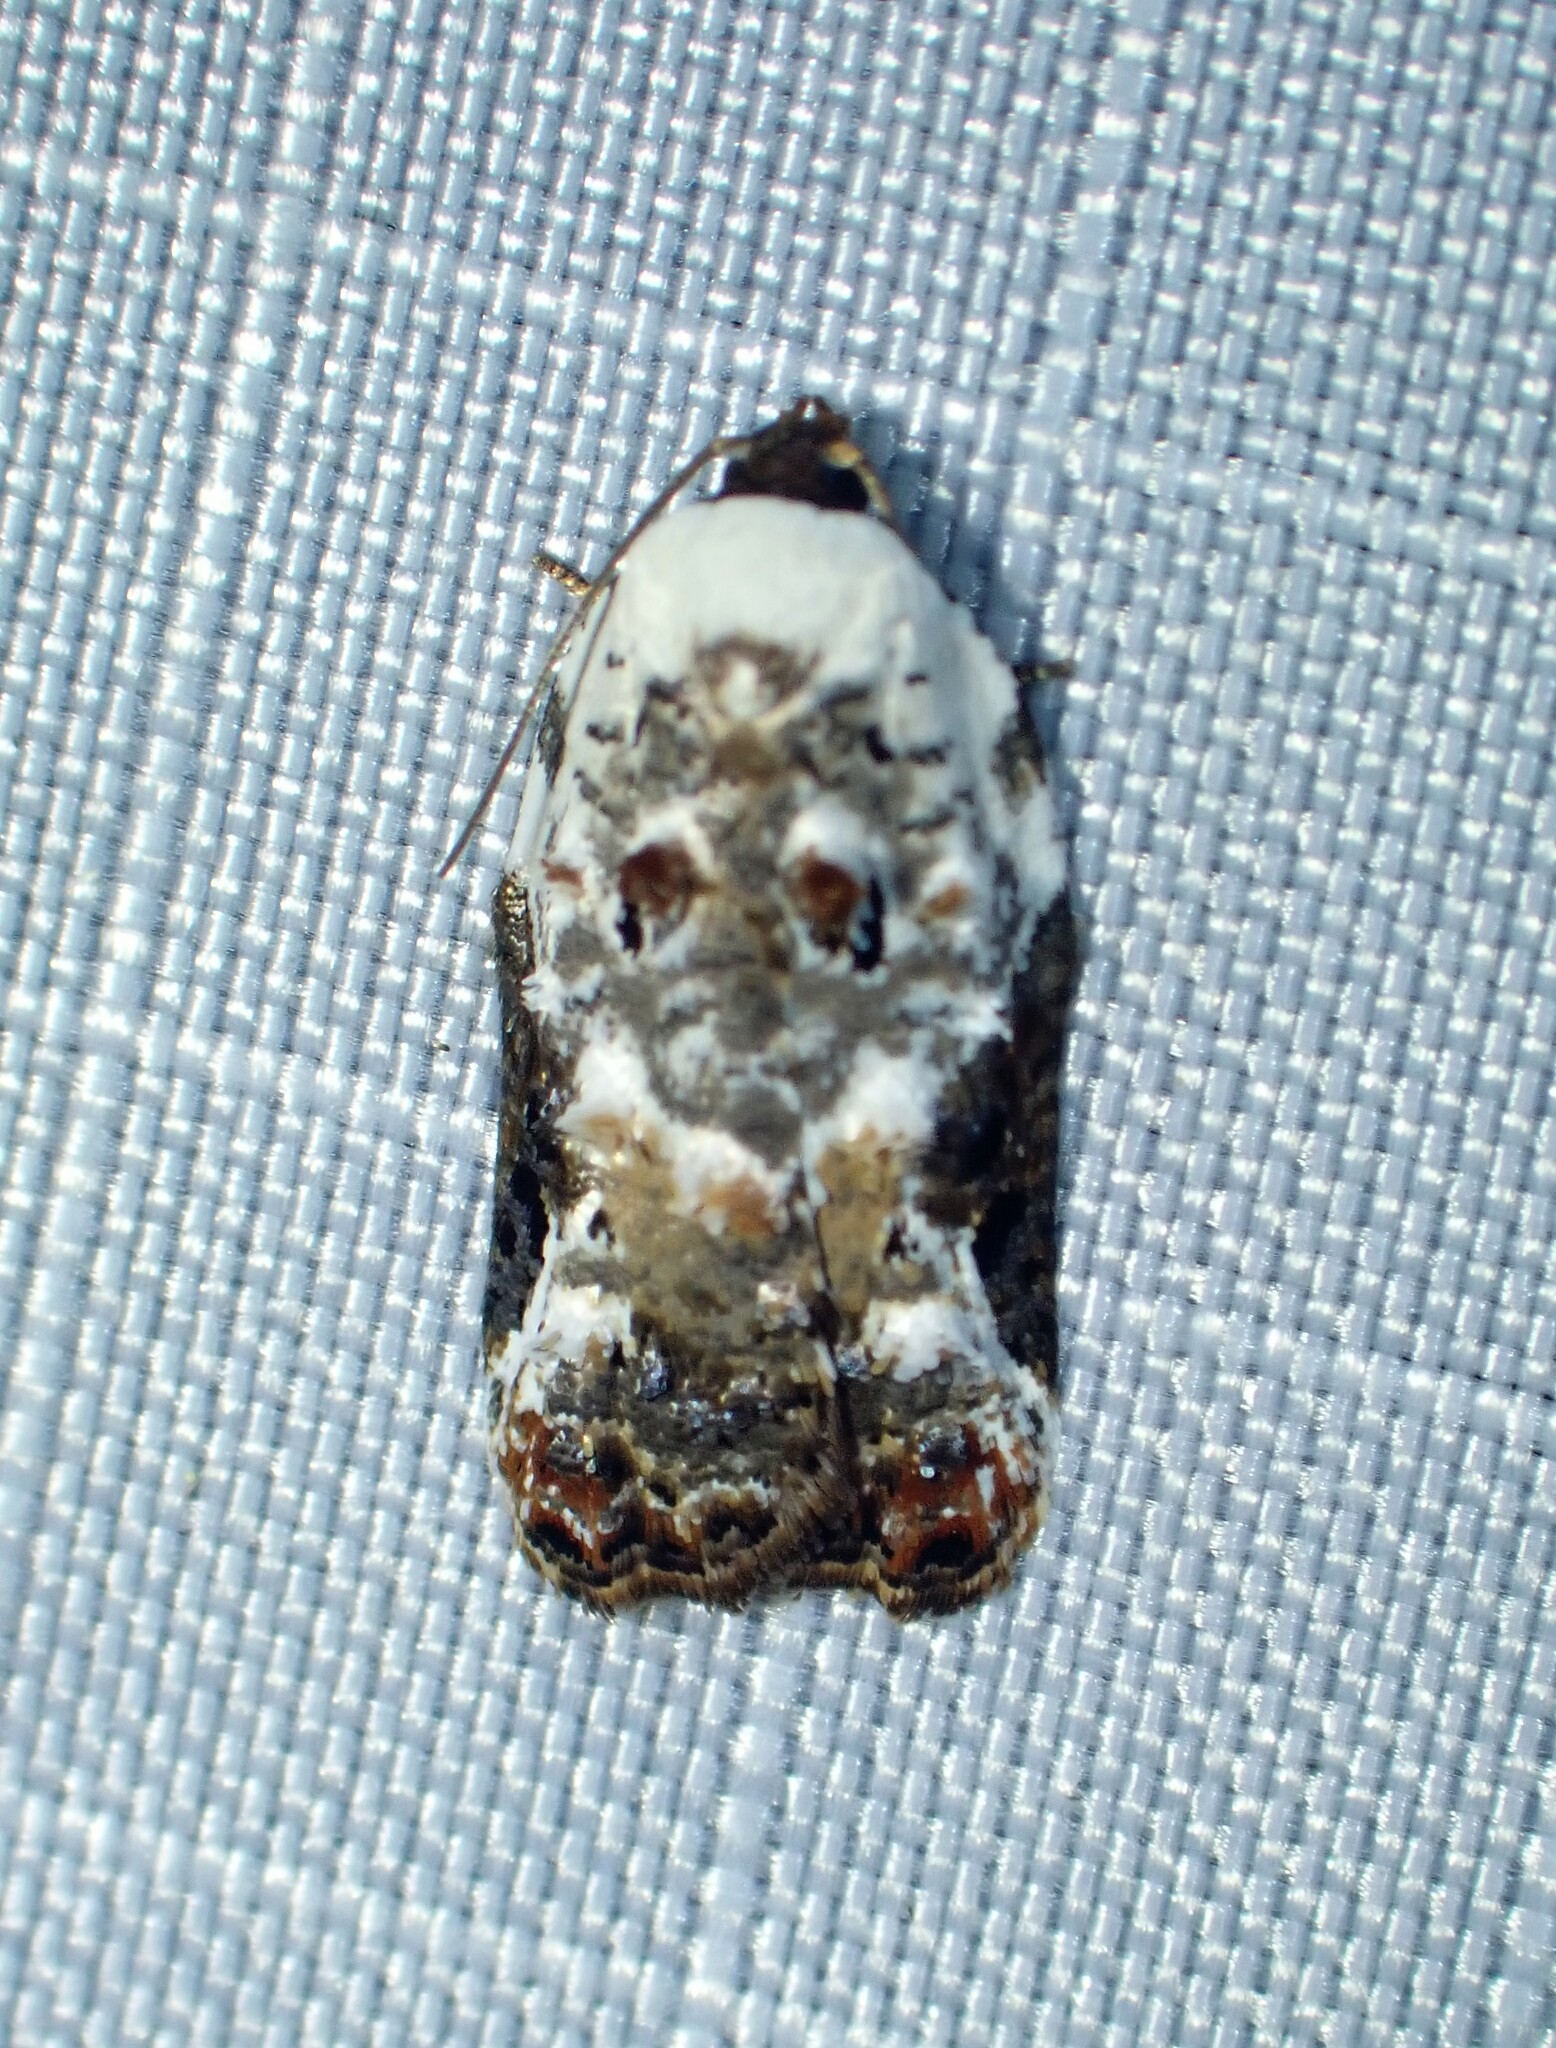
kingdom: Animalia
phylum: Arthropoda
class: Insecta
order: Lepidoptera
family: Tortricidae
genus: Acleris
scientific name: Acleris nivisellana
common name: Snowy-shouldered acleris moth
